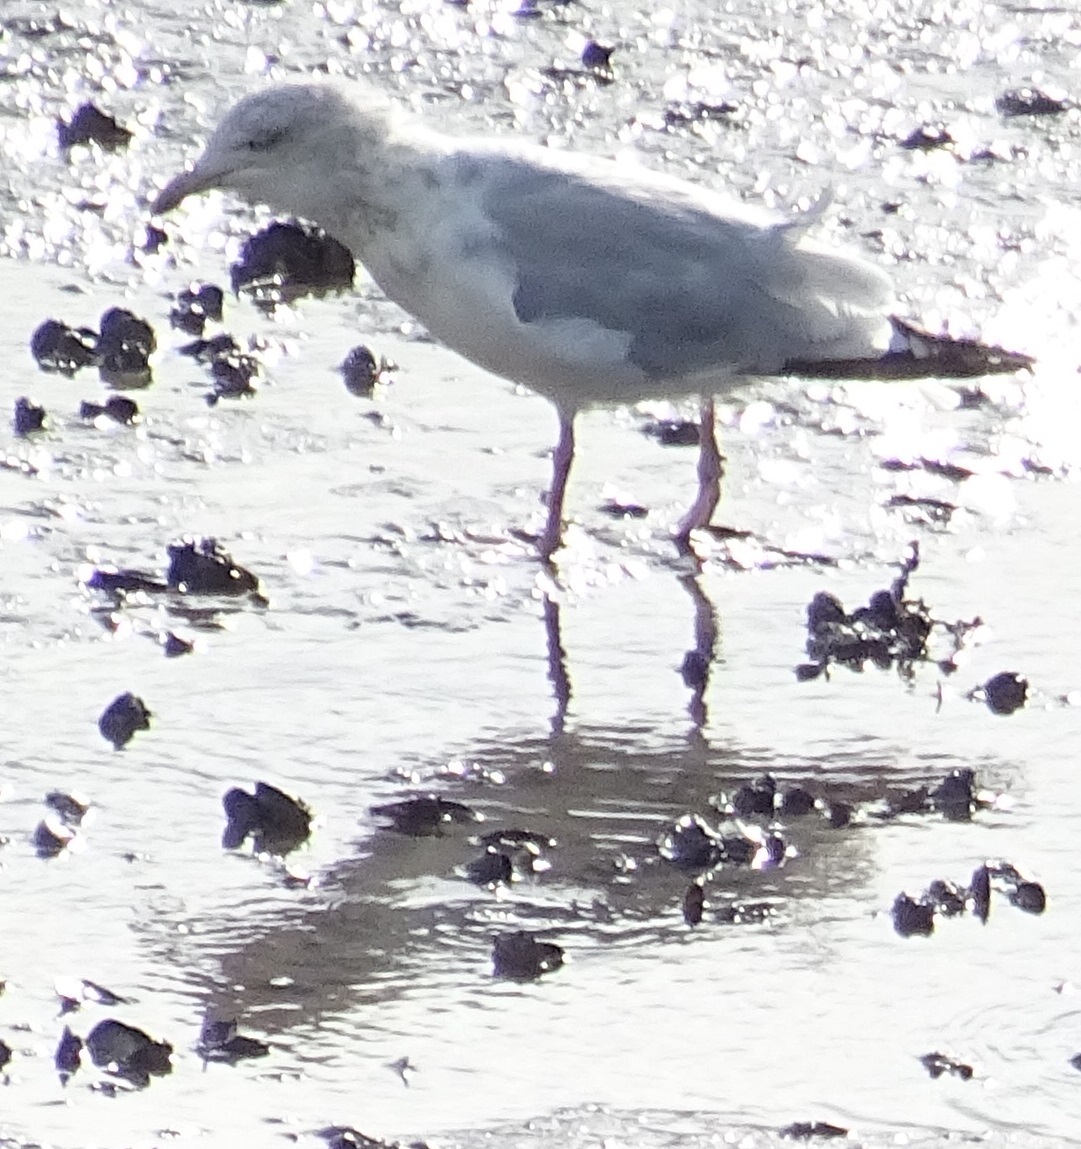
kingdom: Animalia
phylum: Chordata
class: Aves
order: Charadriiformes
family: Laridae
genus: Larus
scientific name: Larus argentatus
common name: Herring gull
